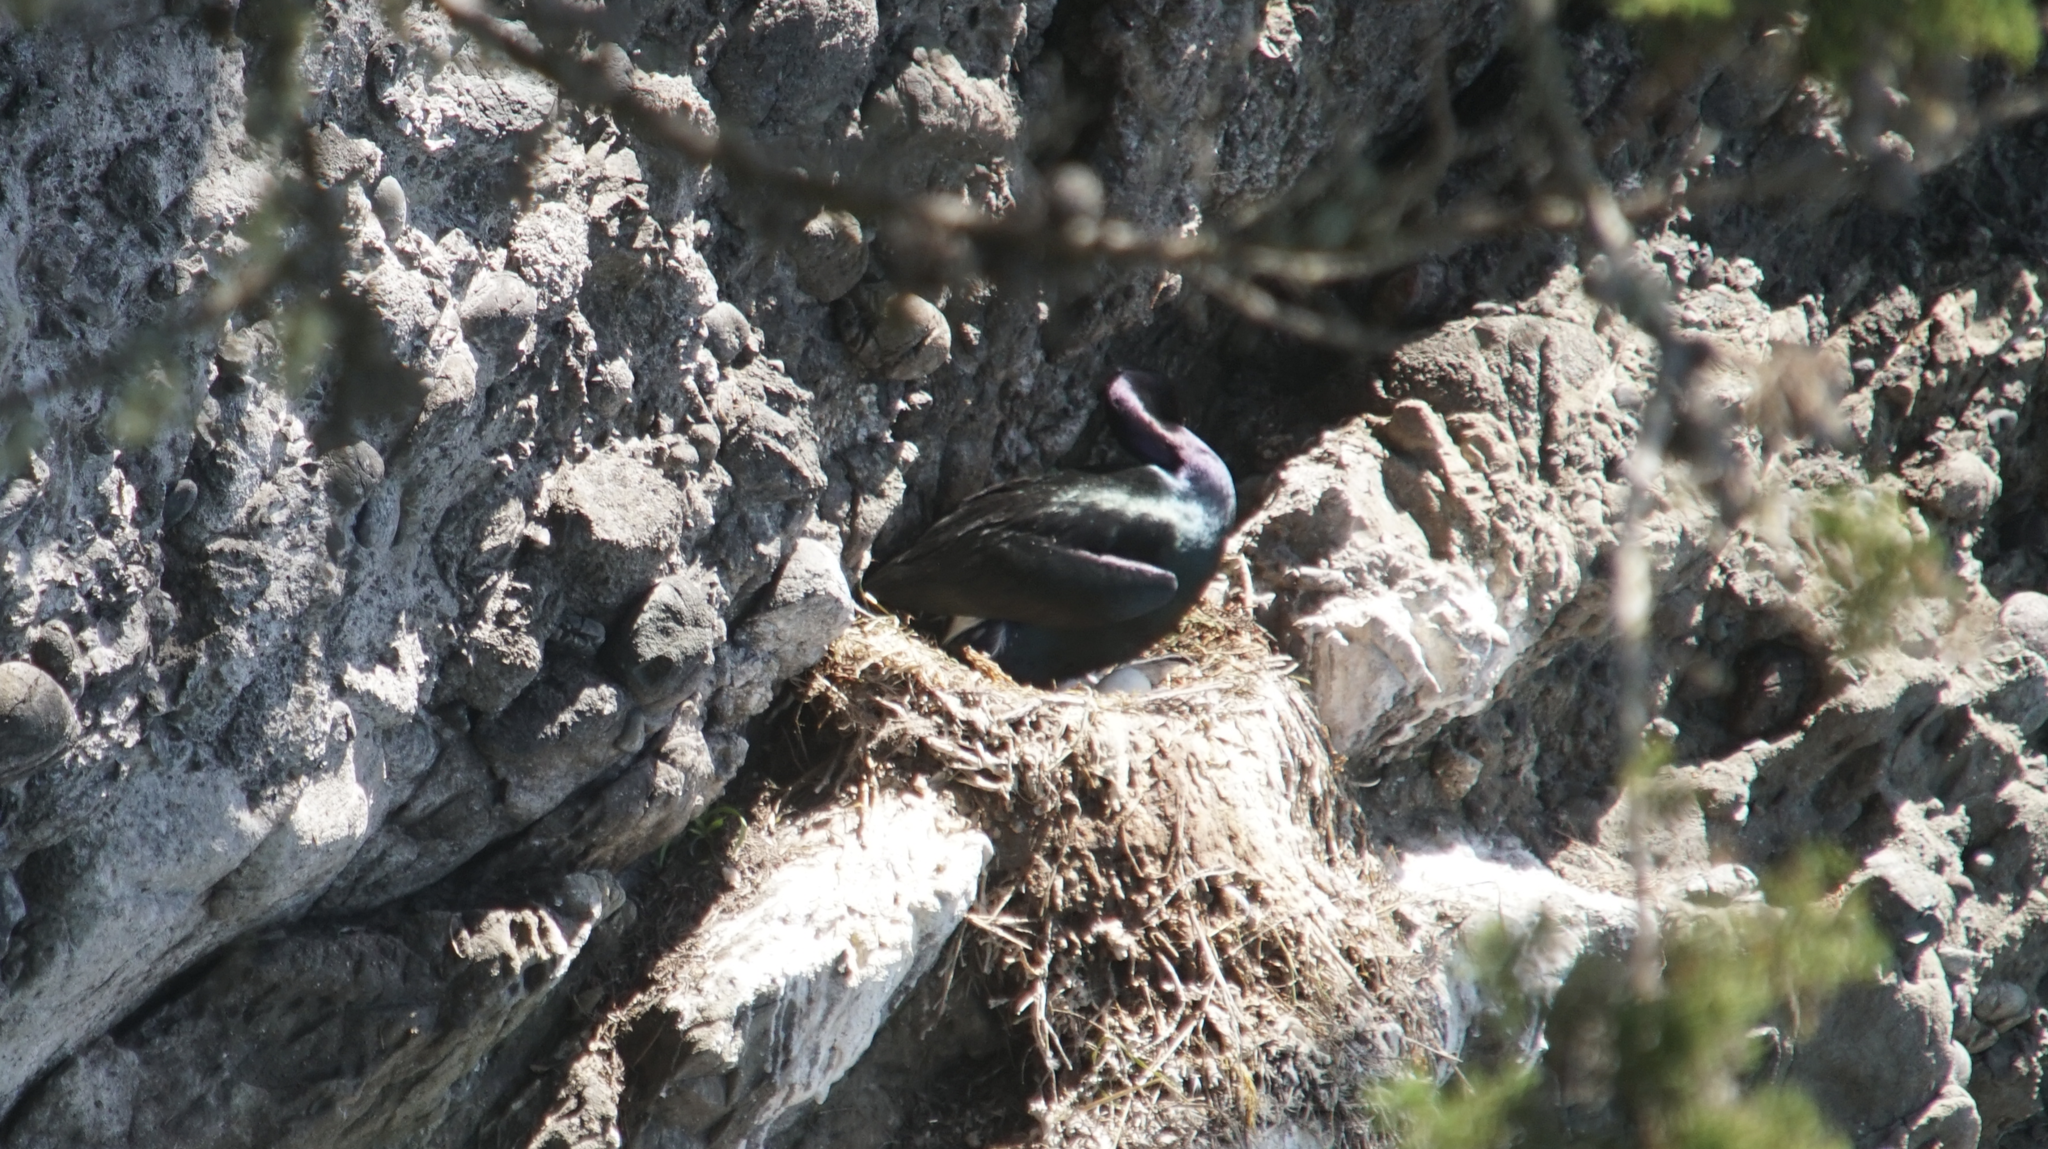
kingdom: Animalia
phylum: Chordata
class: Aves
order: Suliformes
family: Phalacrocoracidae
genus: Phalacrocorax
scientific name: Phalacrocorax pelagicus
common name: Pelagic cormorant
